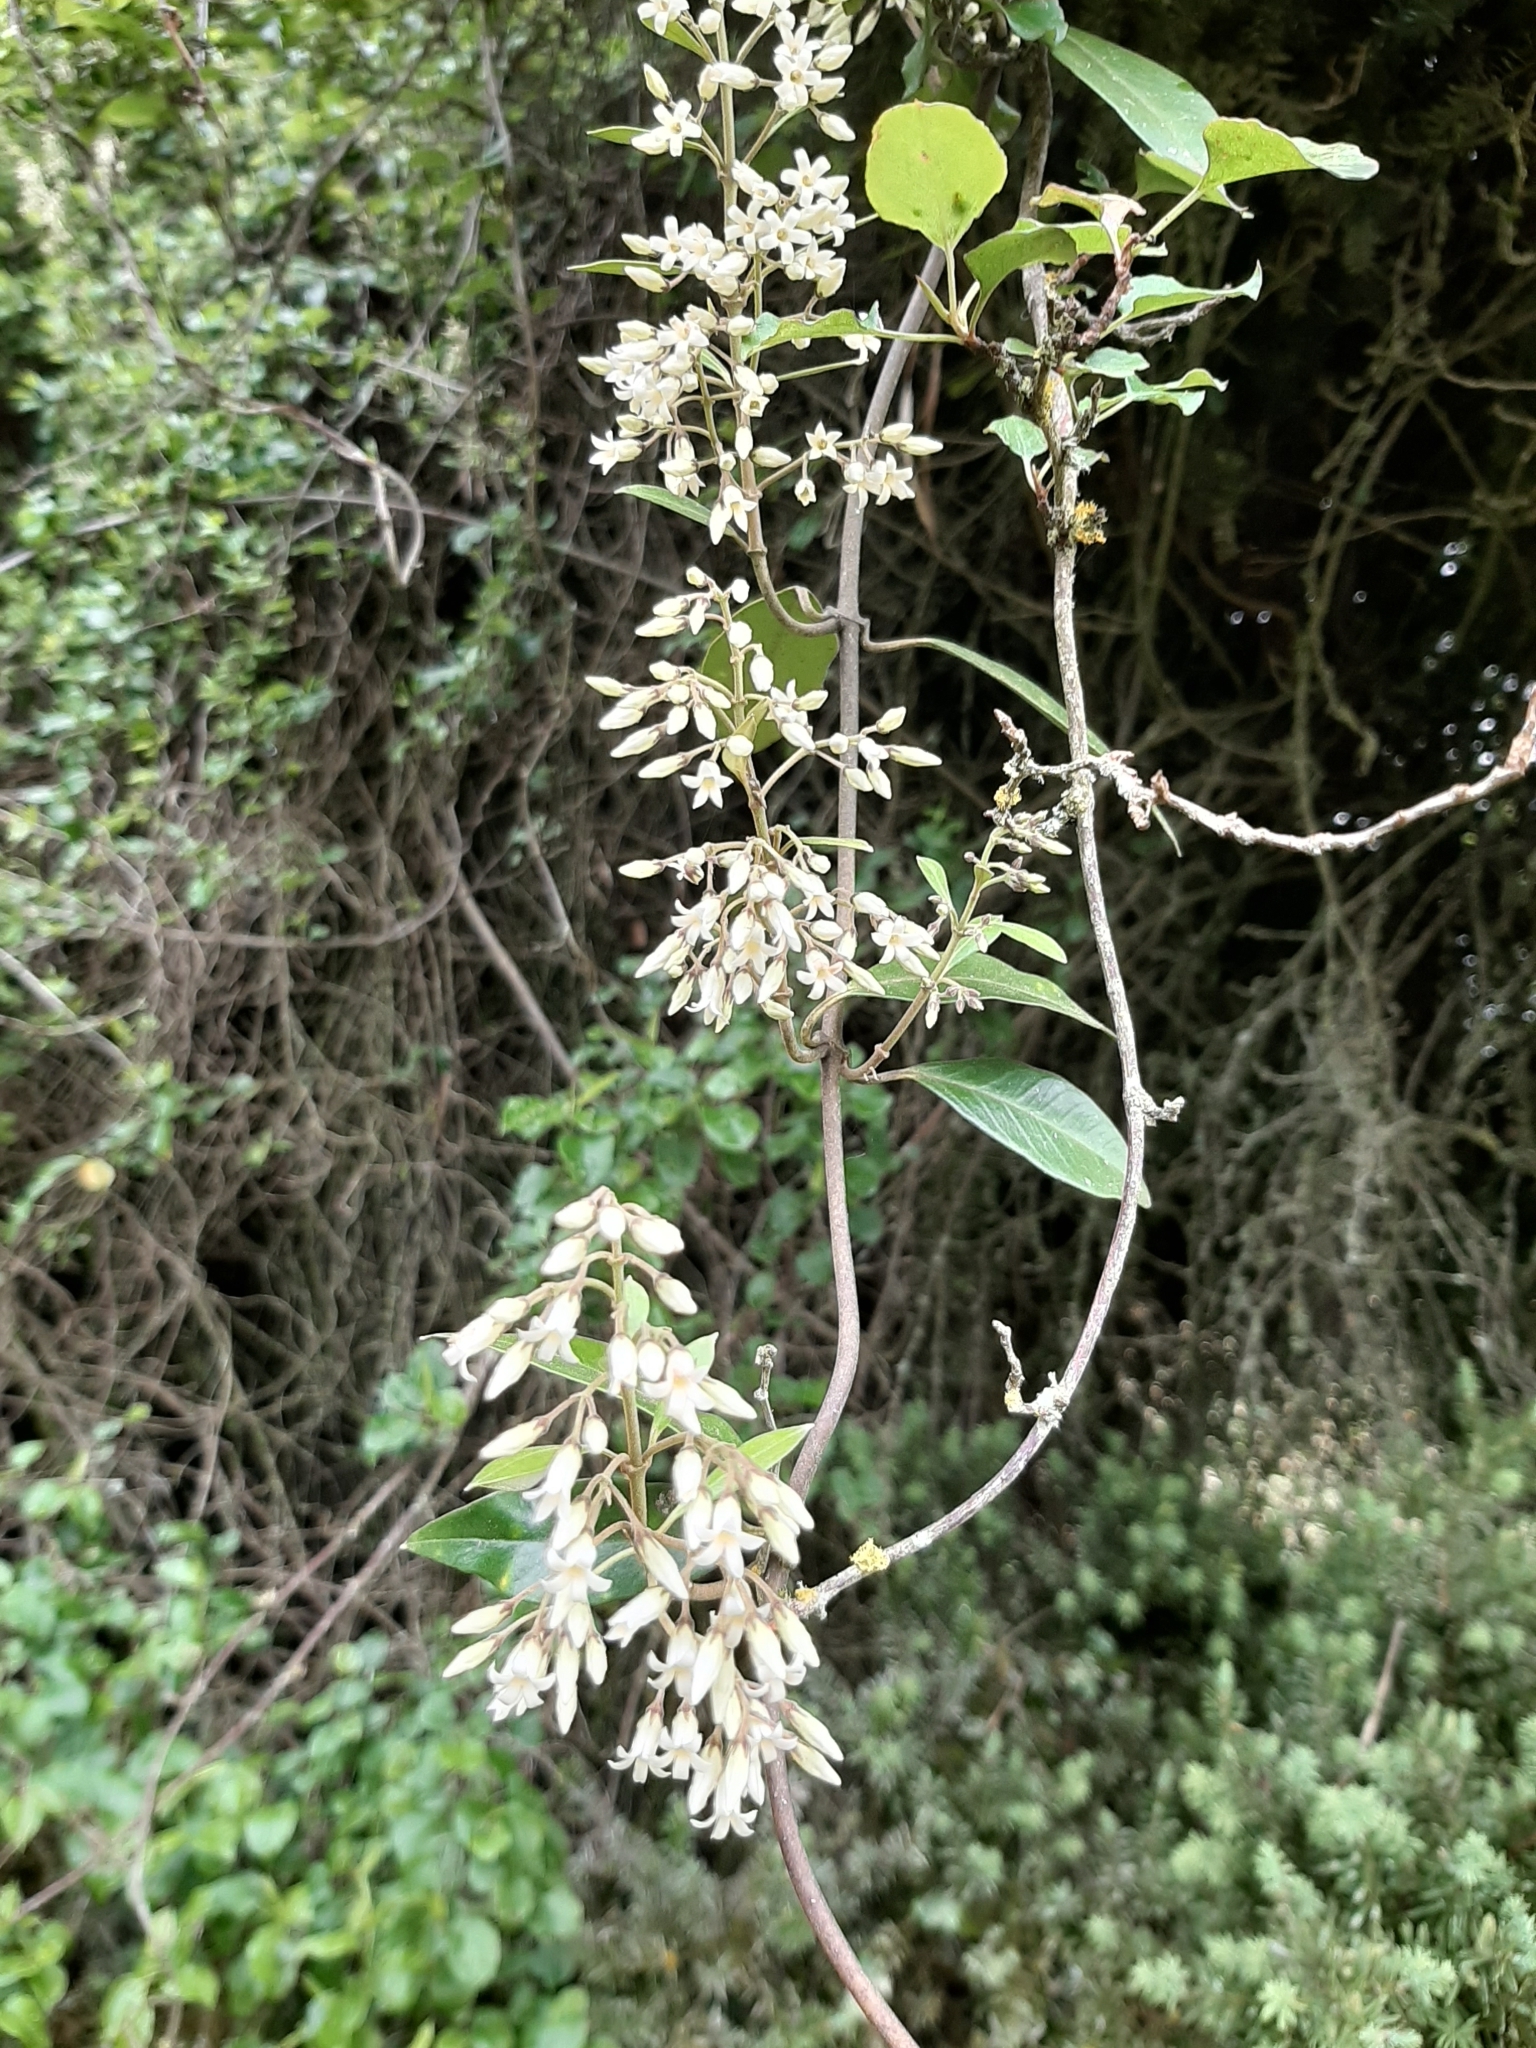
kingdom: Plantae
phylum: Tracheophyta
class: Magnoliopsida
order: Gentianales
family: Apocynaceae
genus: Parsonsia
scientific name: Parsonsia heterophylla
